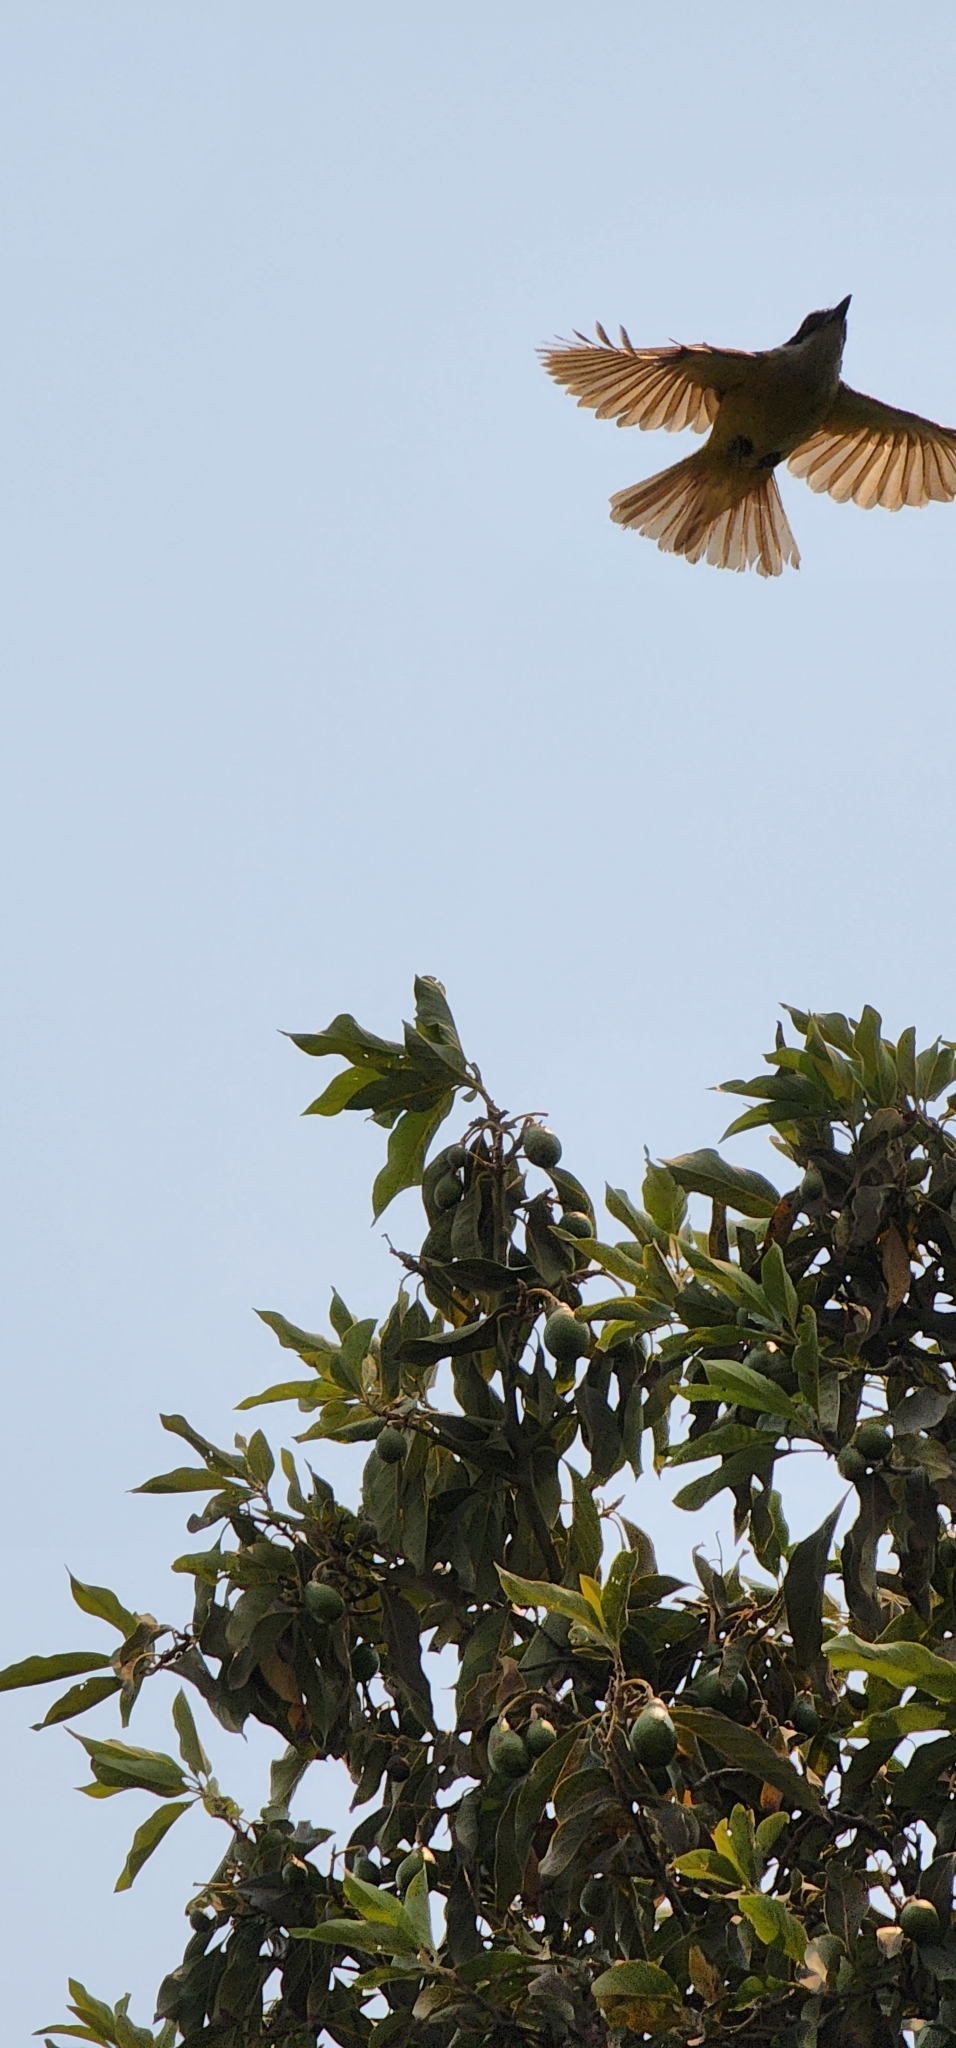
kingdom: Animalia
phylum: Chordata
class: Aves
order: Passeriformes
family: Tyrannidae
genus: Pitangus
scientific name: Pitangus sulphuratus
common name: Great kiskadee
